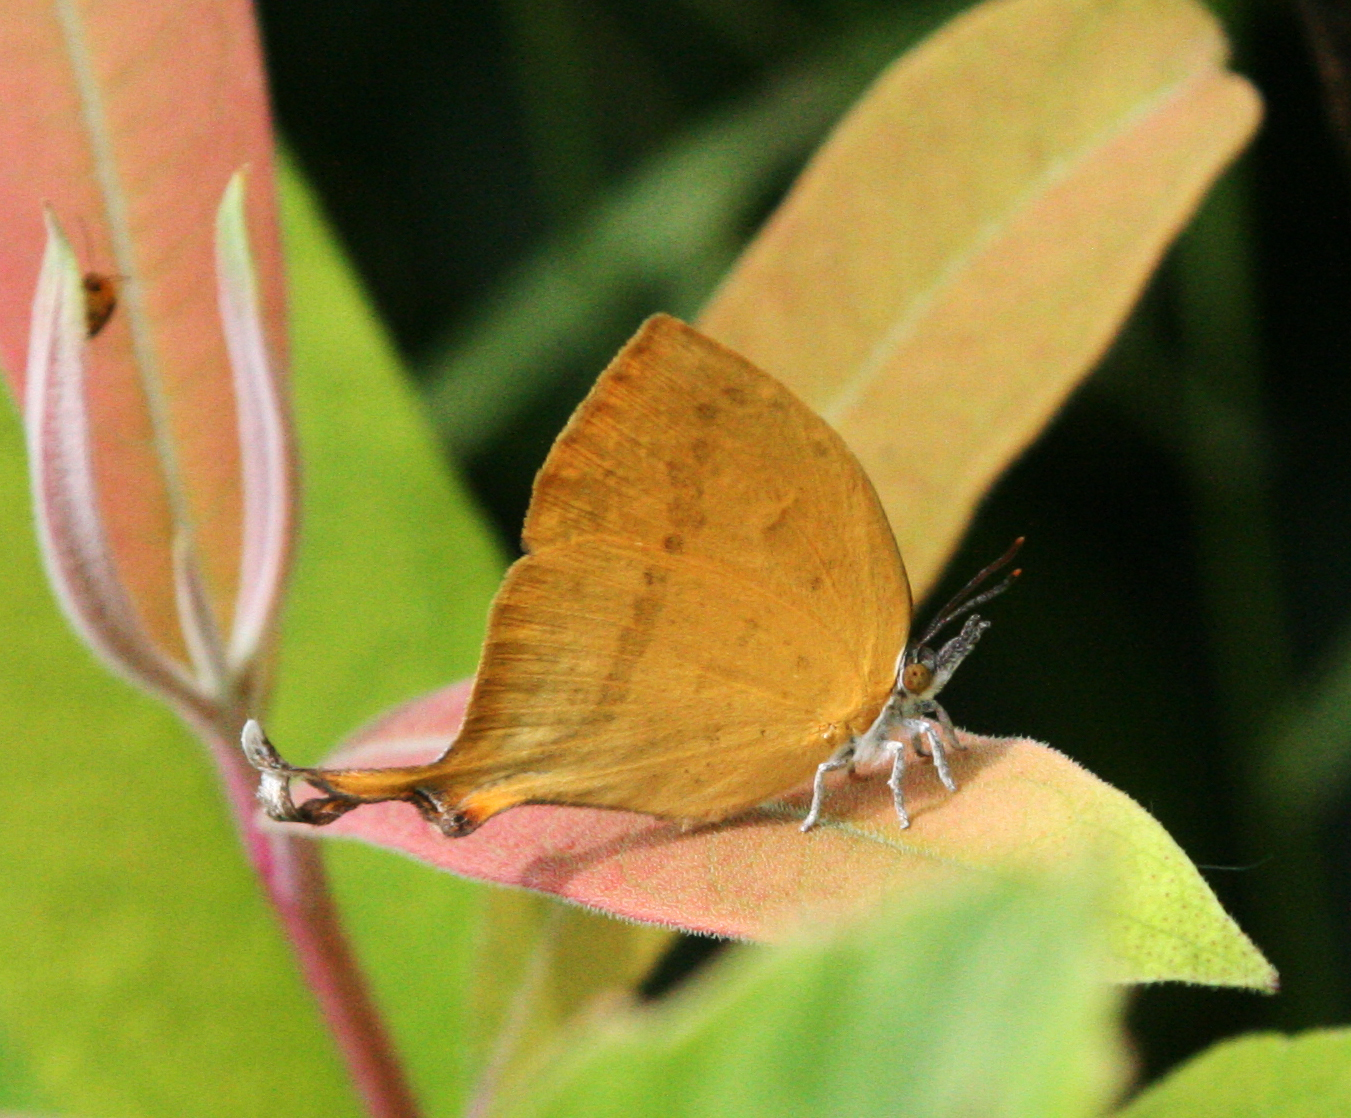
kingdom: Animalia
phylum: Arthropoda
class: Insecta
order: Lepidoptera
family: Lycaenidae
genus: Loxura
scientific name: Loxura atymnus
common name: Common yamfly
